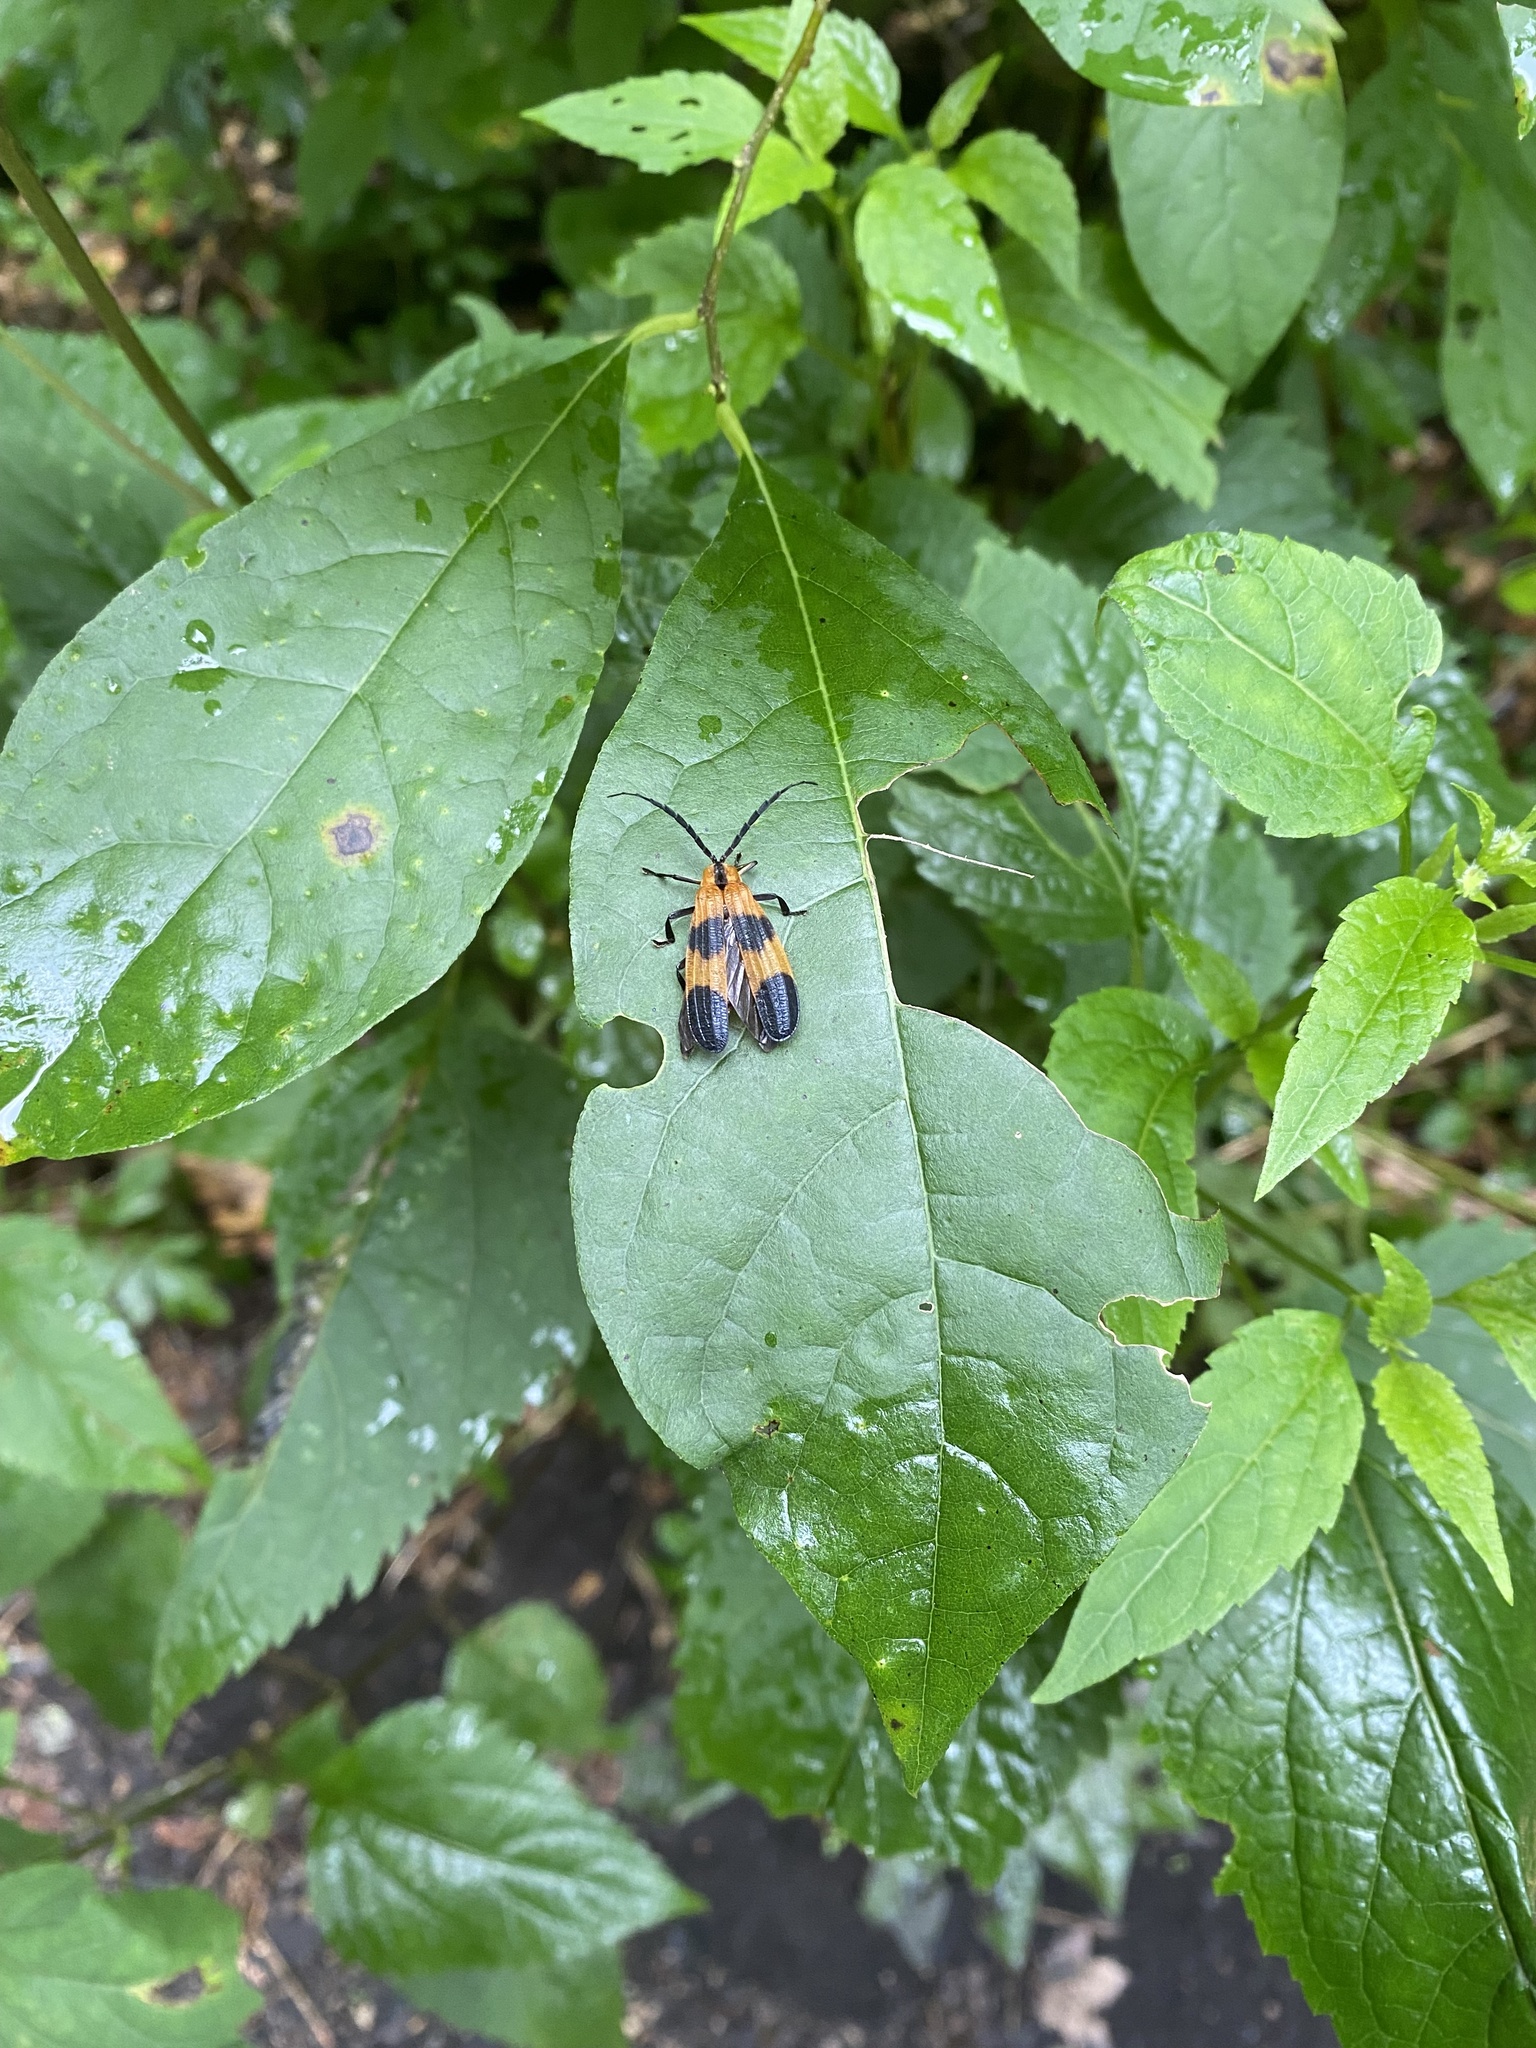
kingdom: Animalia
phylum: Arthropoda
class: Insecta
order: Coleoptera
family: Lycidae
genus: Calopteron
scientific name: Calopteron reticulatum
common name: Banded net-winged beetle
